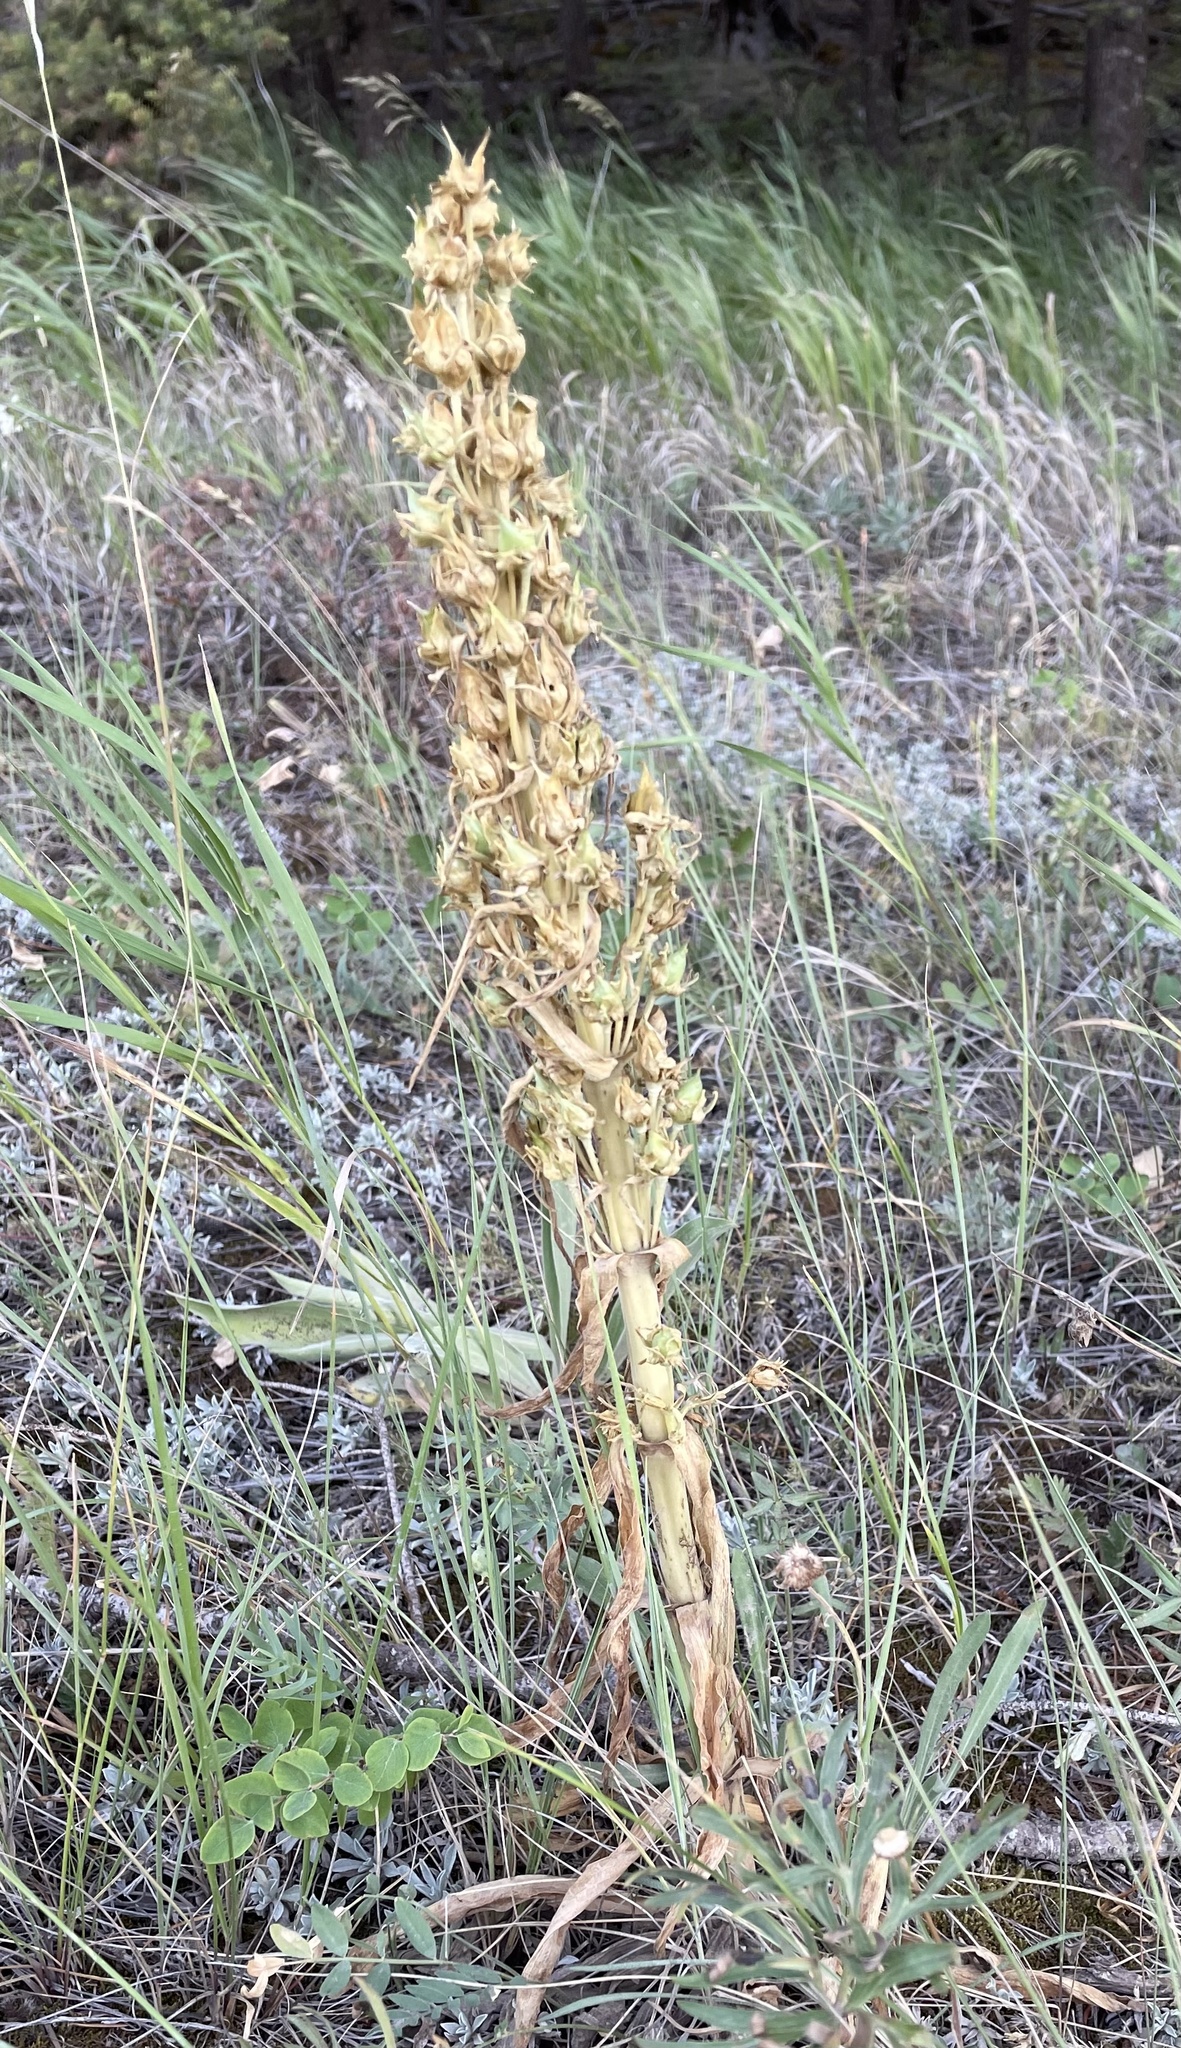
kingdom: Plantae
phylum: Tracheophyta
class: Magnoliopsida
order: Gentianales
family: Gentianaceae
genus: Frasera
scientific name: Frasera speciosa
